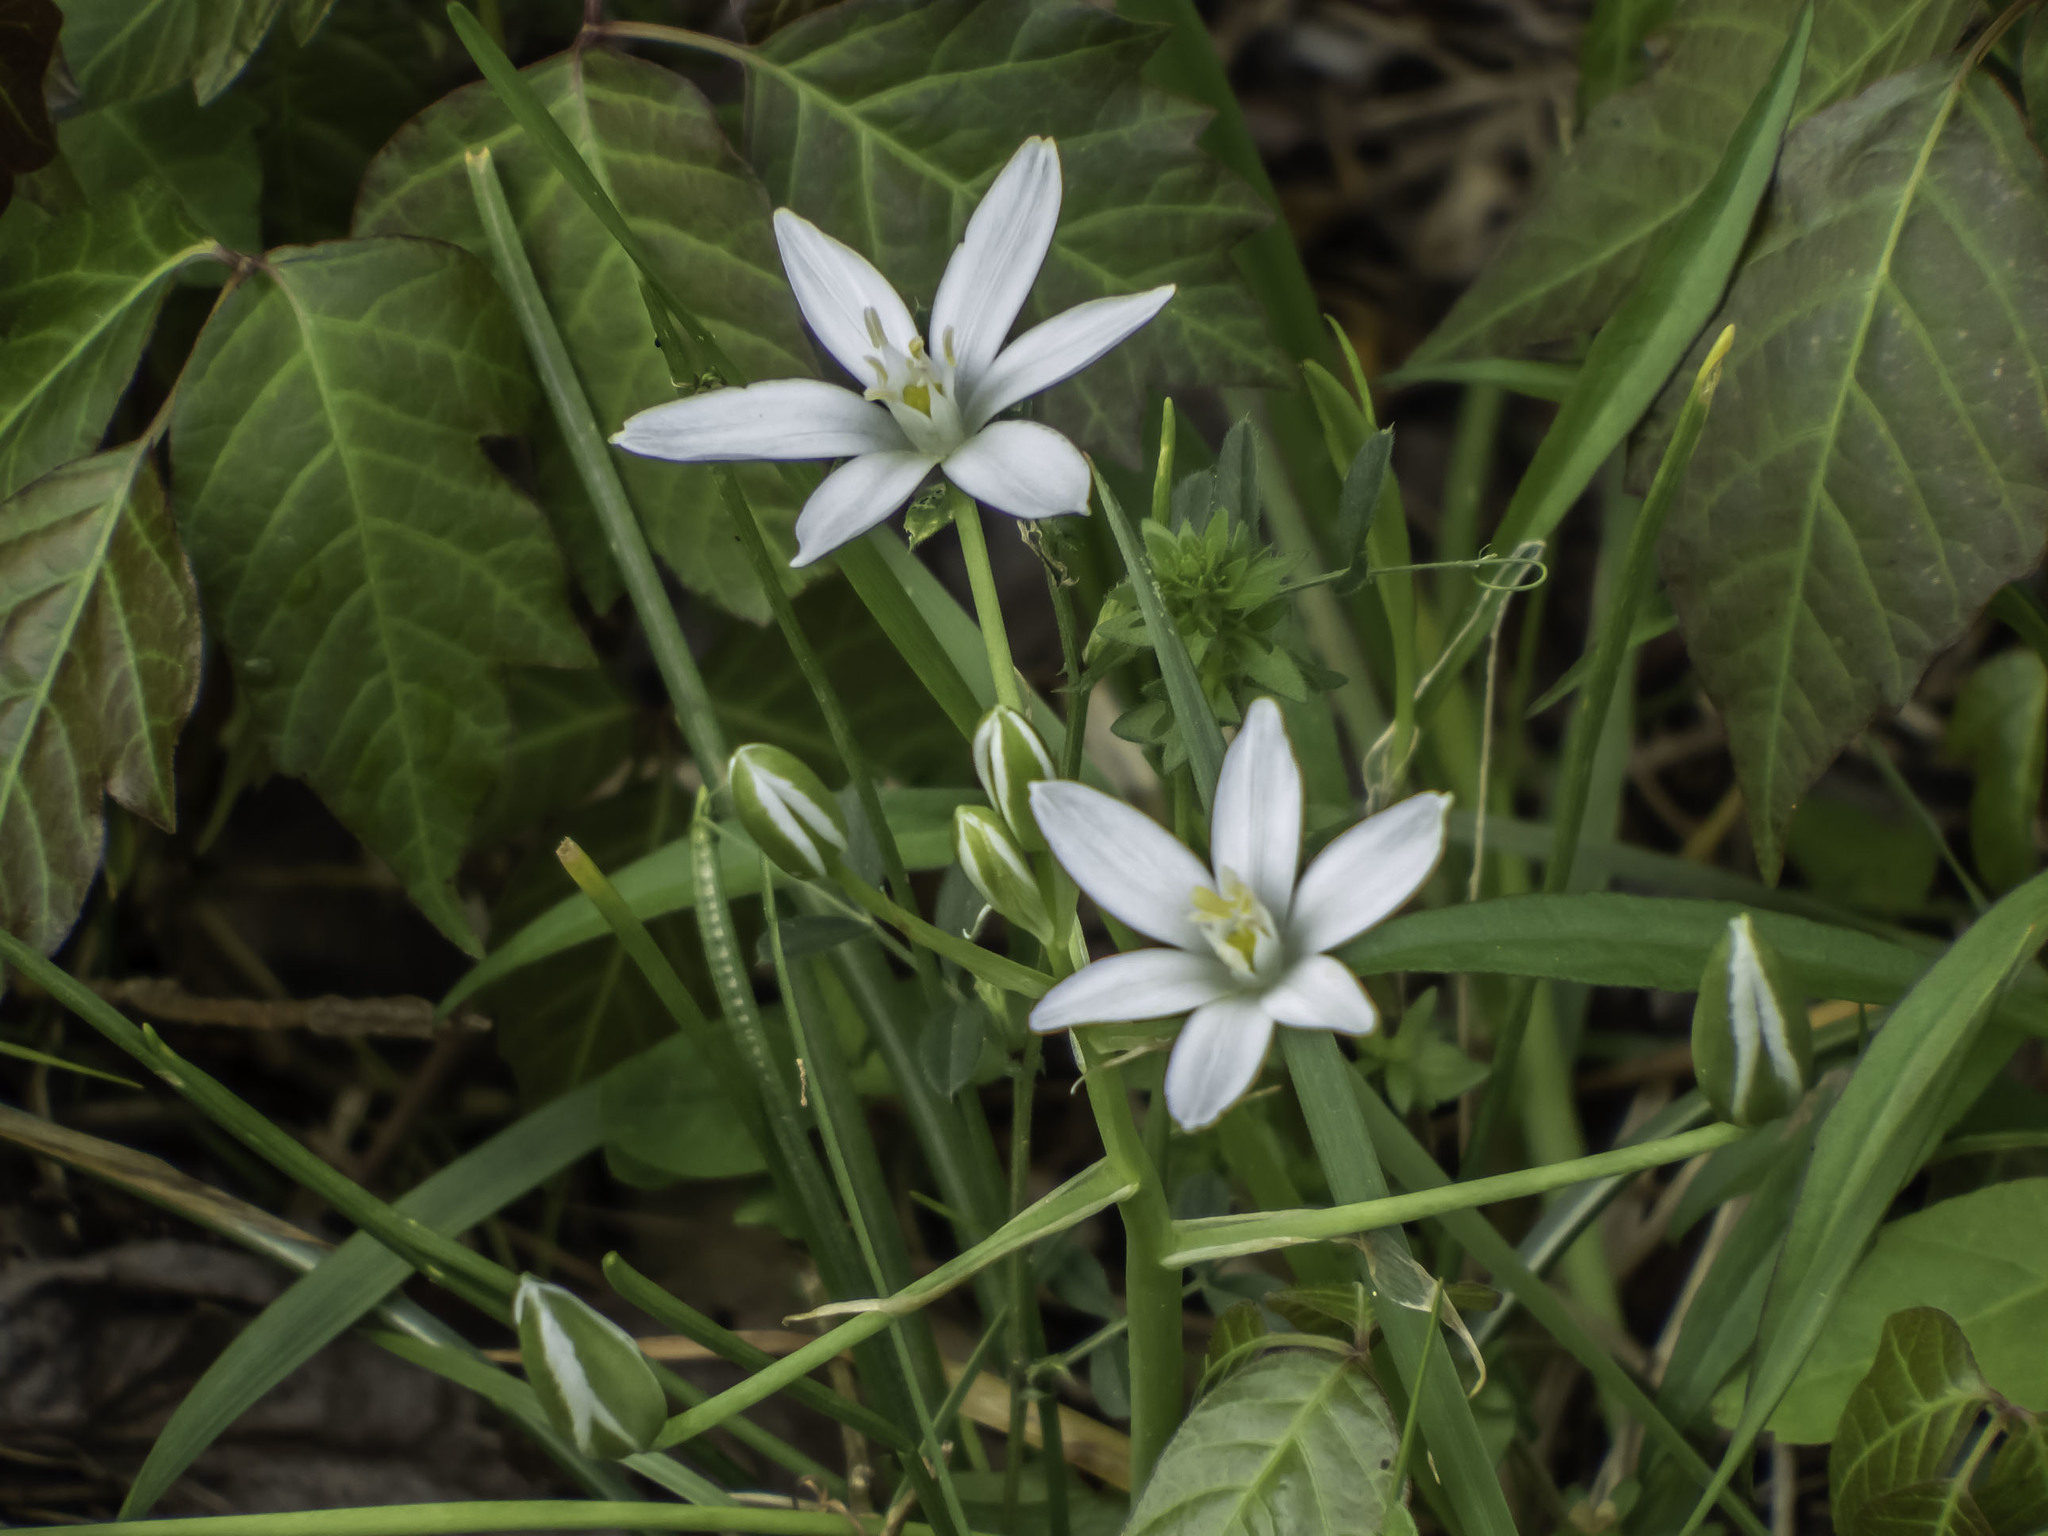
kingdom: Plantae
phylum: Tracheophyta
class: Liliopsida
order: Asparagales
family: Asparagaceae
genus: Ornithogalum
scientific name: Ornithogalum umbellatum
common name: Garden star-of-bethlehem
